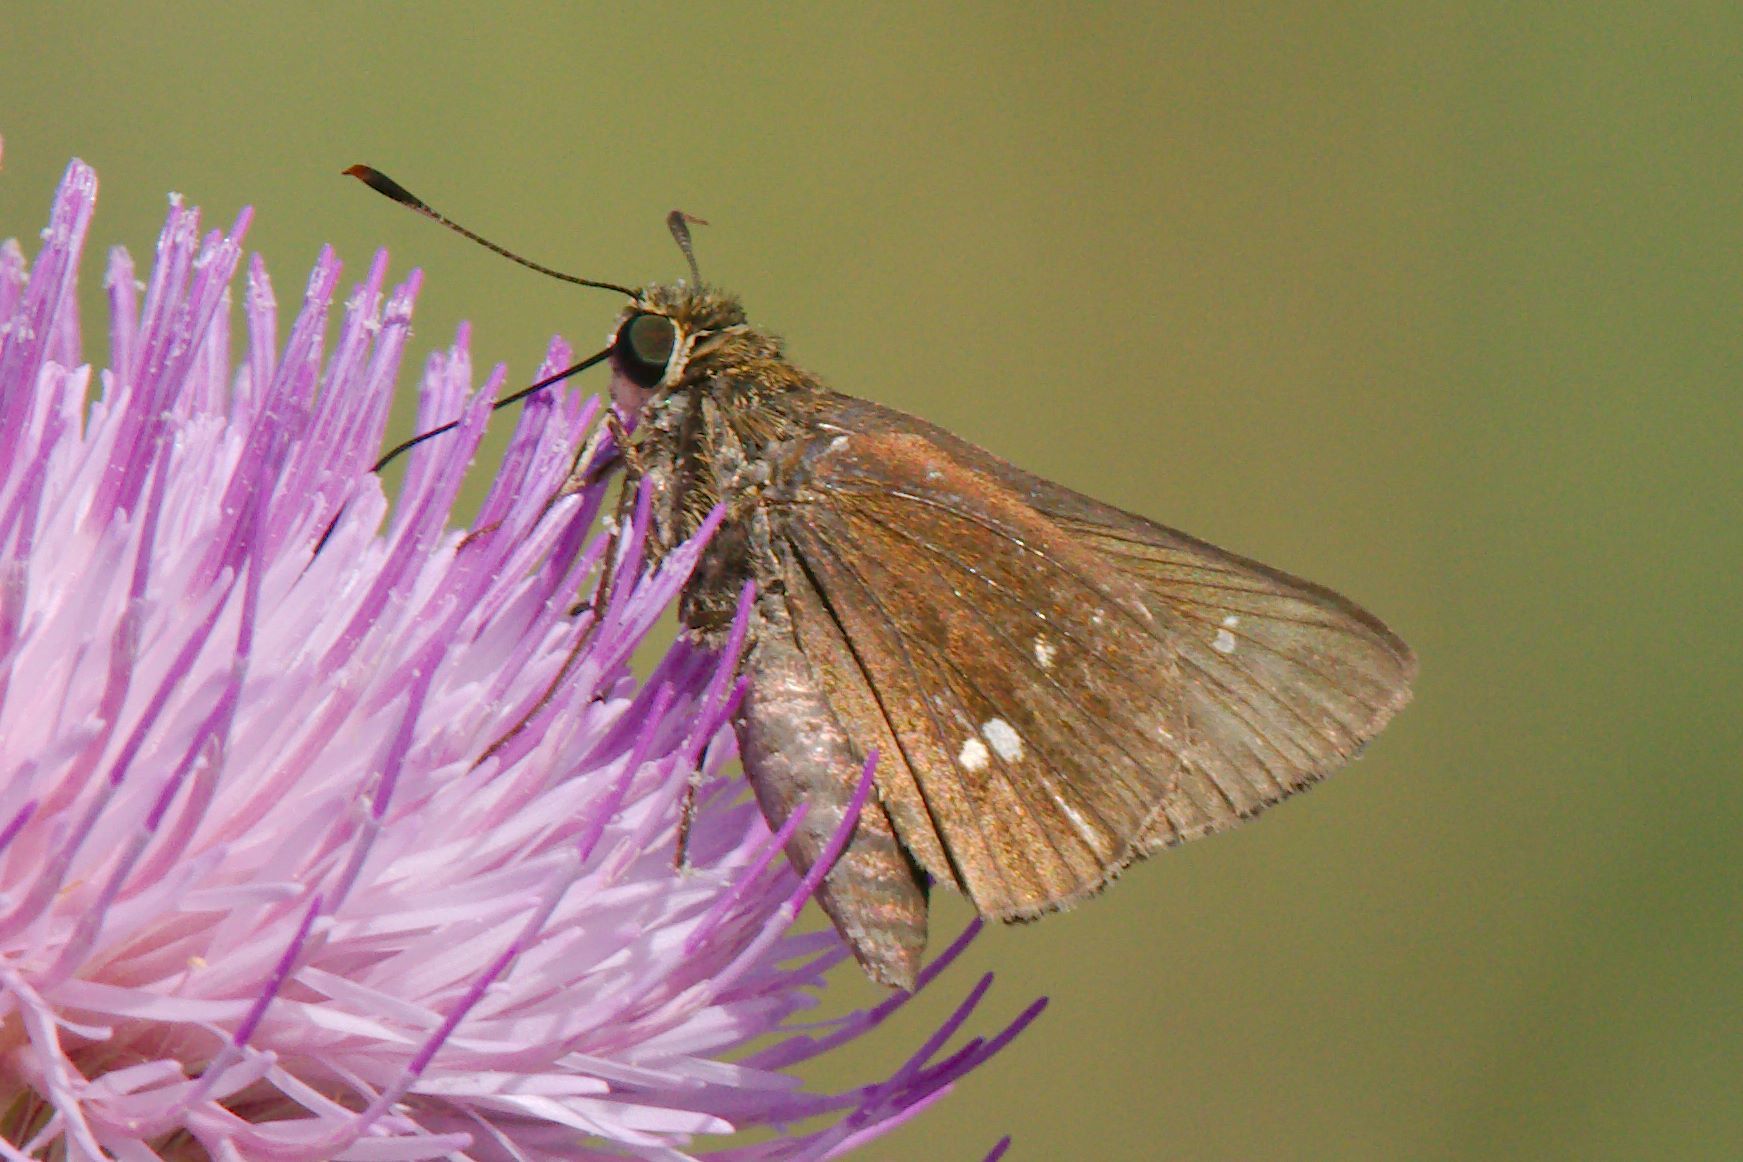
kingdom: Animalia
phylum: Arthropoda
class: Insecta
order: Lepidoptera
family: Hesperiidae
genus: Oligoria
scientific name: Oligoria maculata
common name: Twin-spot skipper
